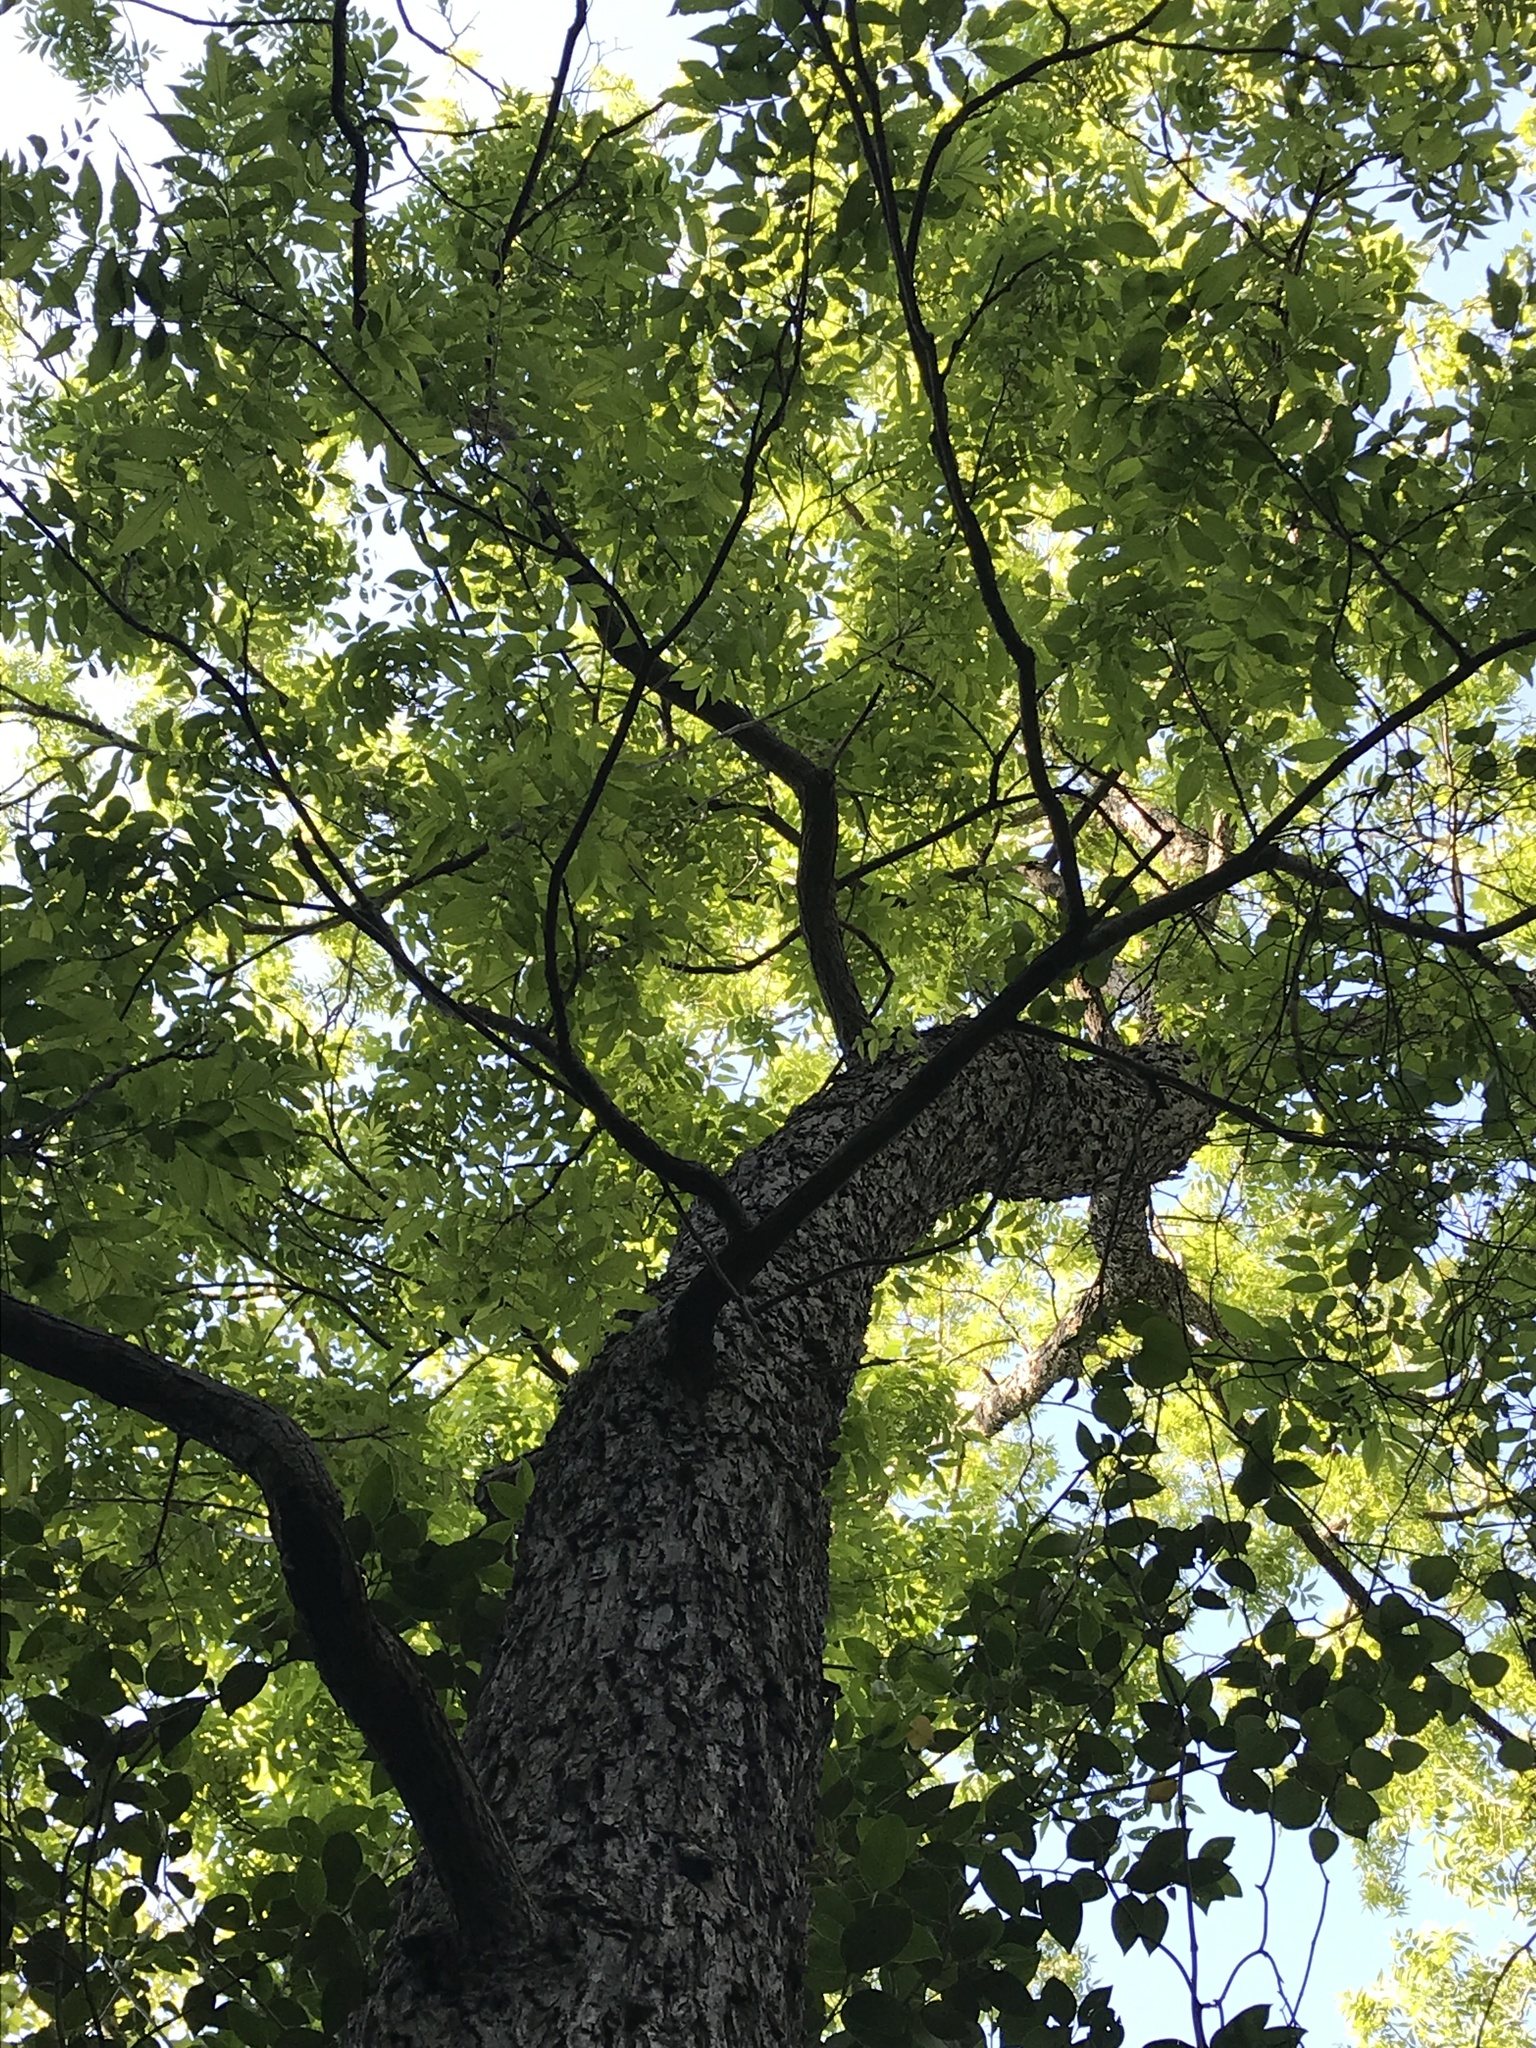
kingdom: Plantae
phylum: Tracheophyta
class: Magnoliopsida
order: Fagales
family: Juglandaceae
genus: Carya
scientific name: Carya illinoinensis
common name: Pecan
